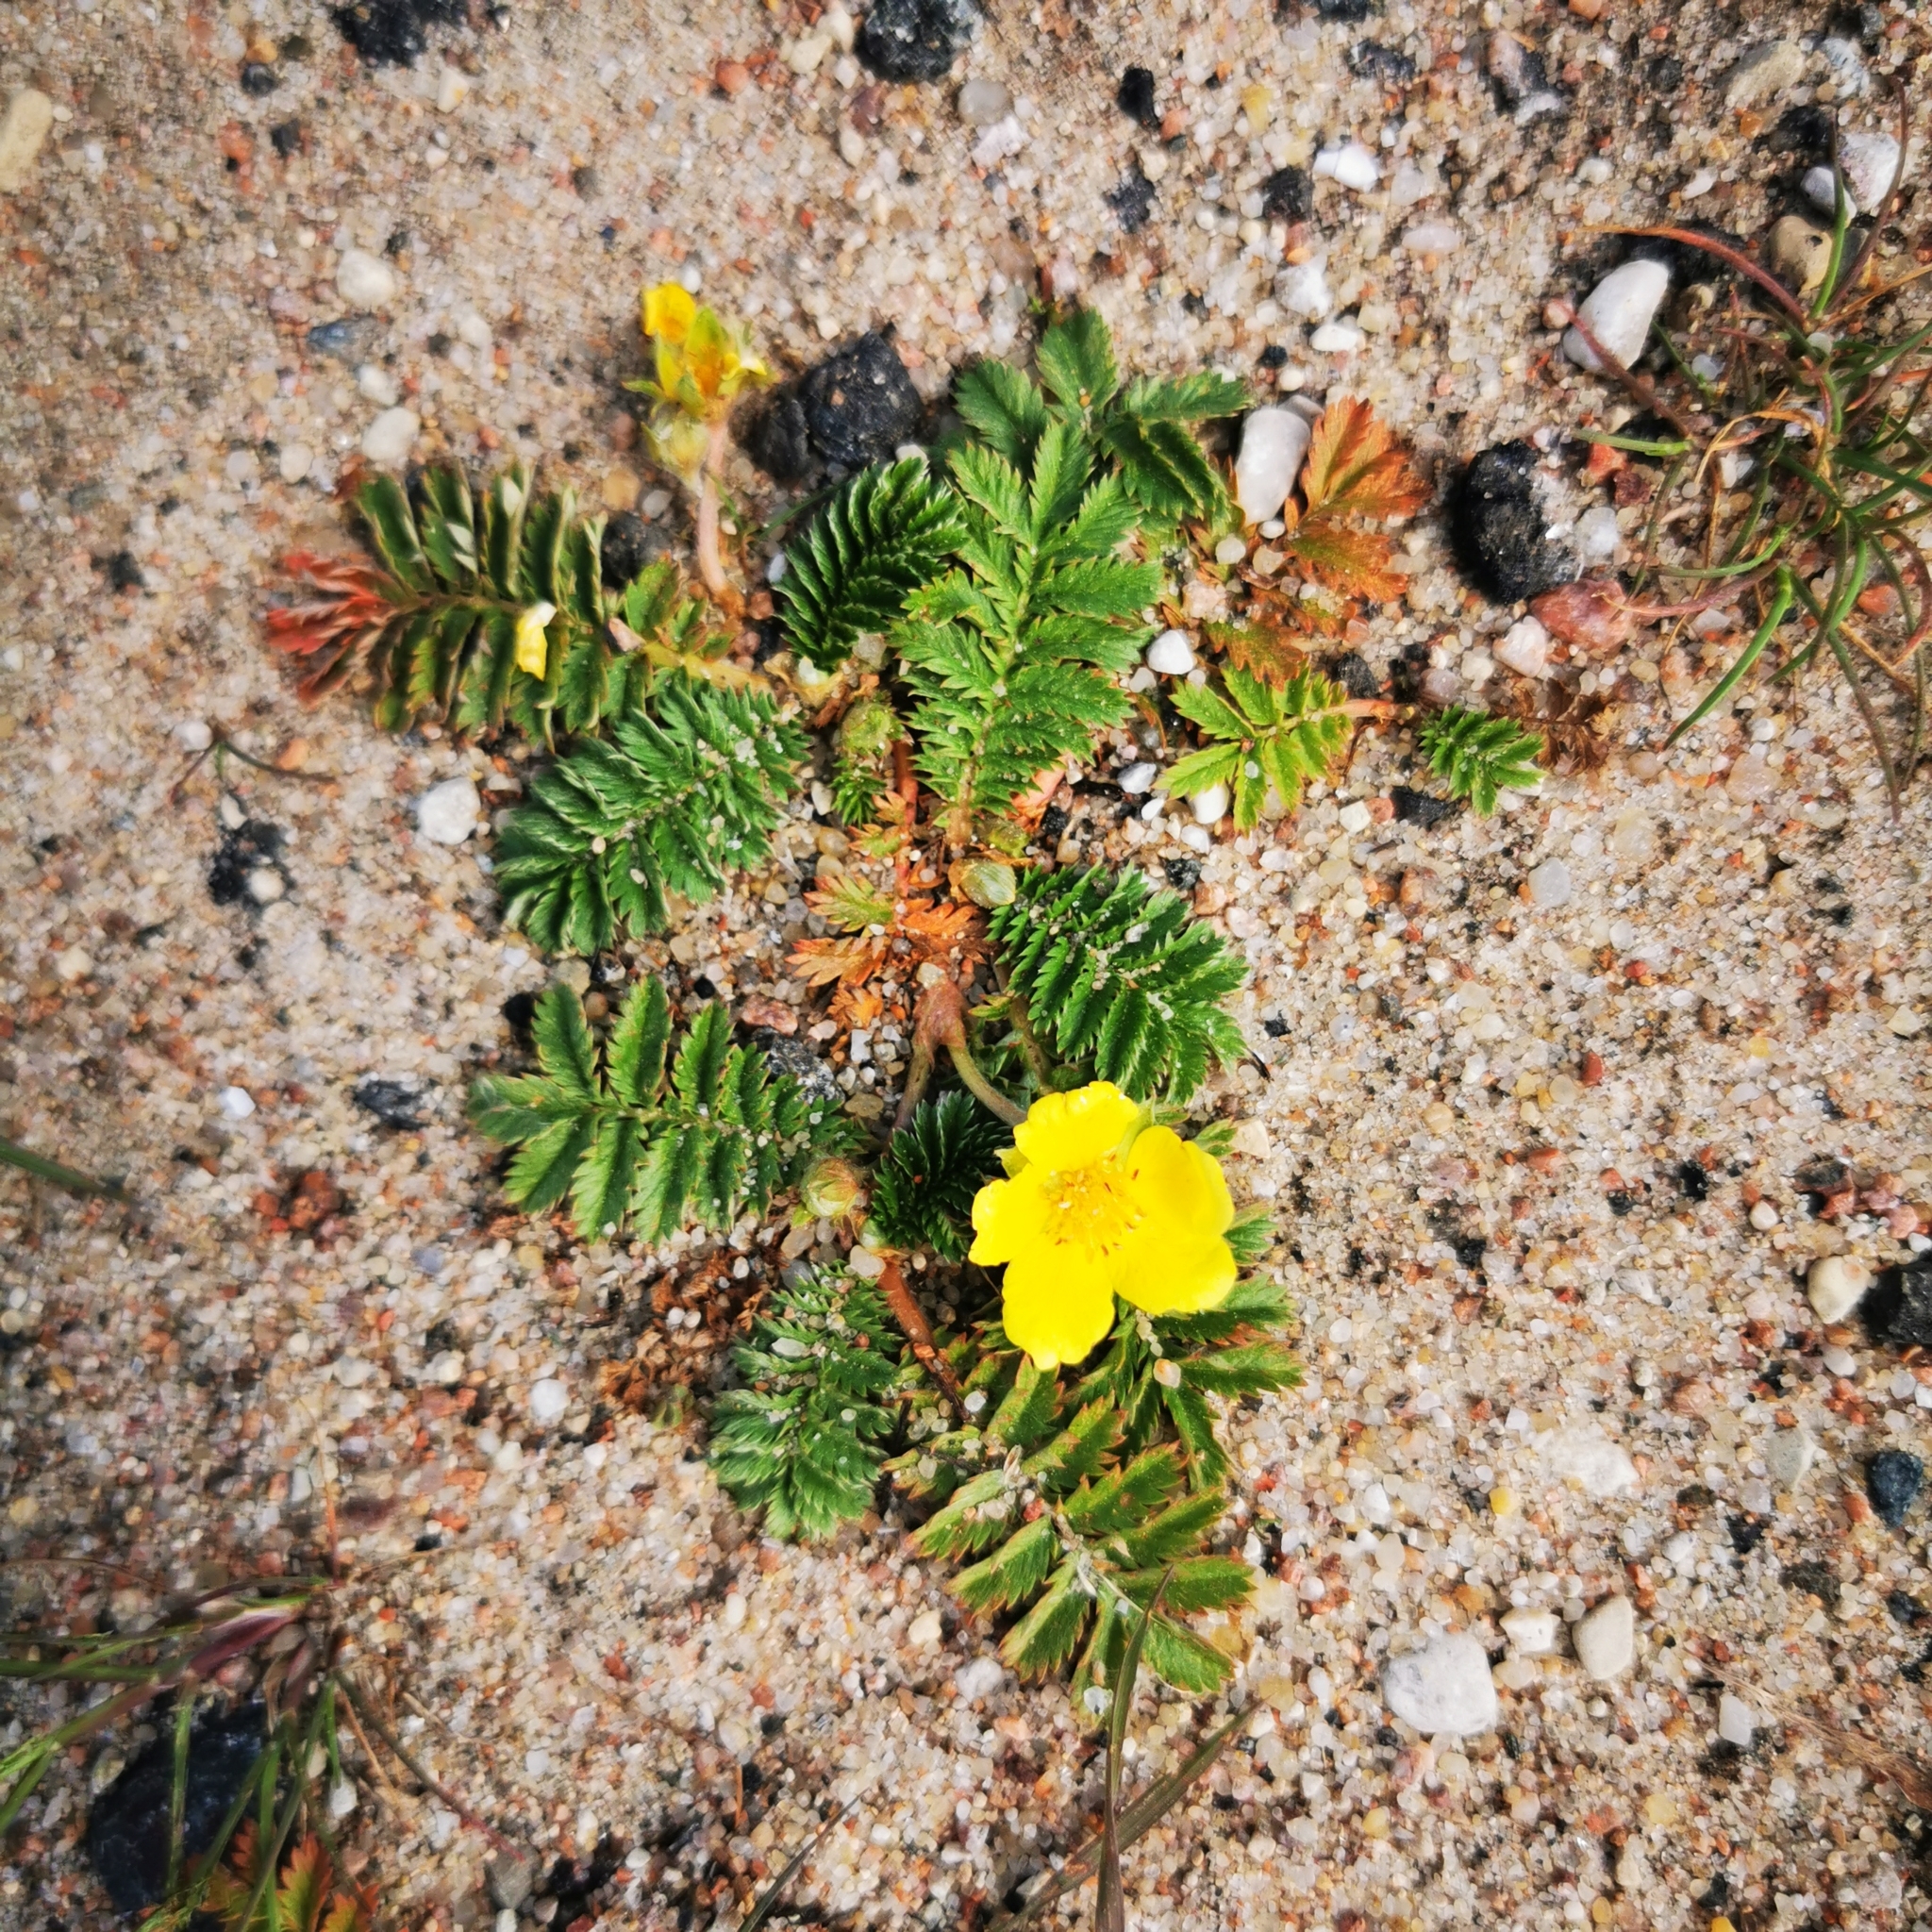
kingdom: Plantae
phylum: Tracheophyta
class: Magnoliopsida
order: Rosales
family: Rosaceae
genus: Argentina
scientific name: Argentina anserina
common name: Common silverweed
